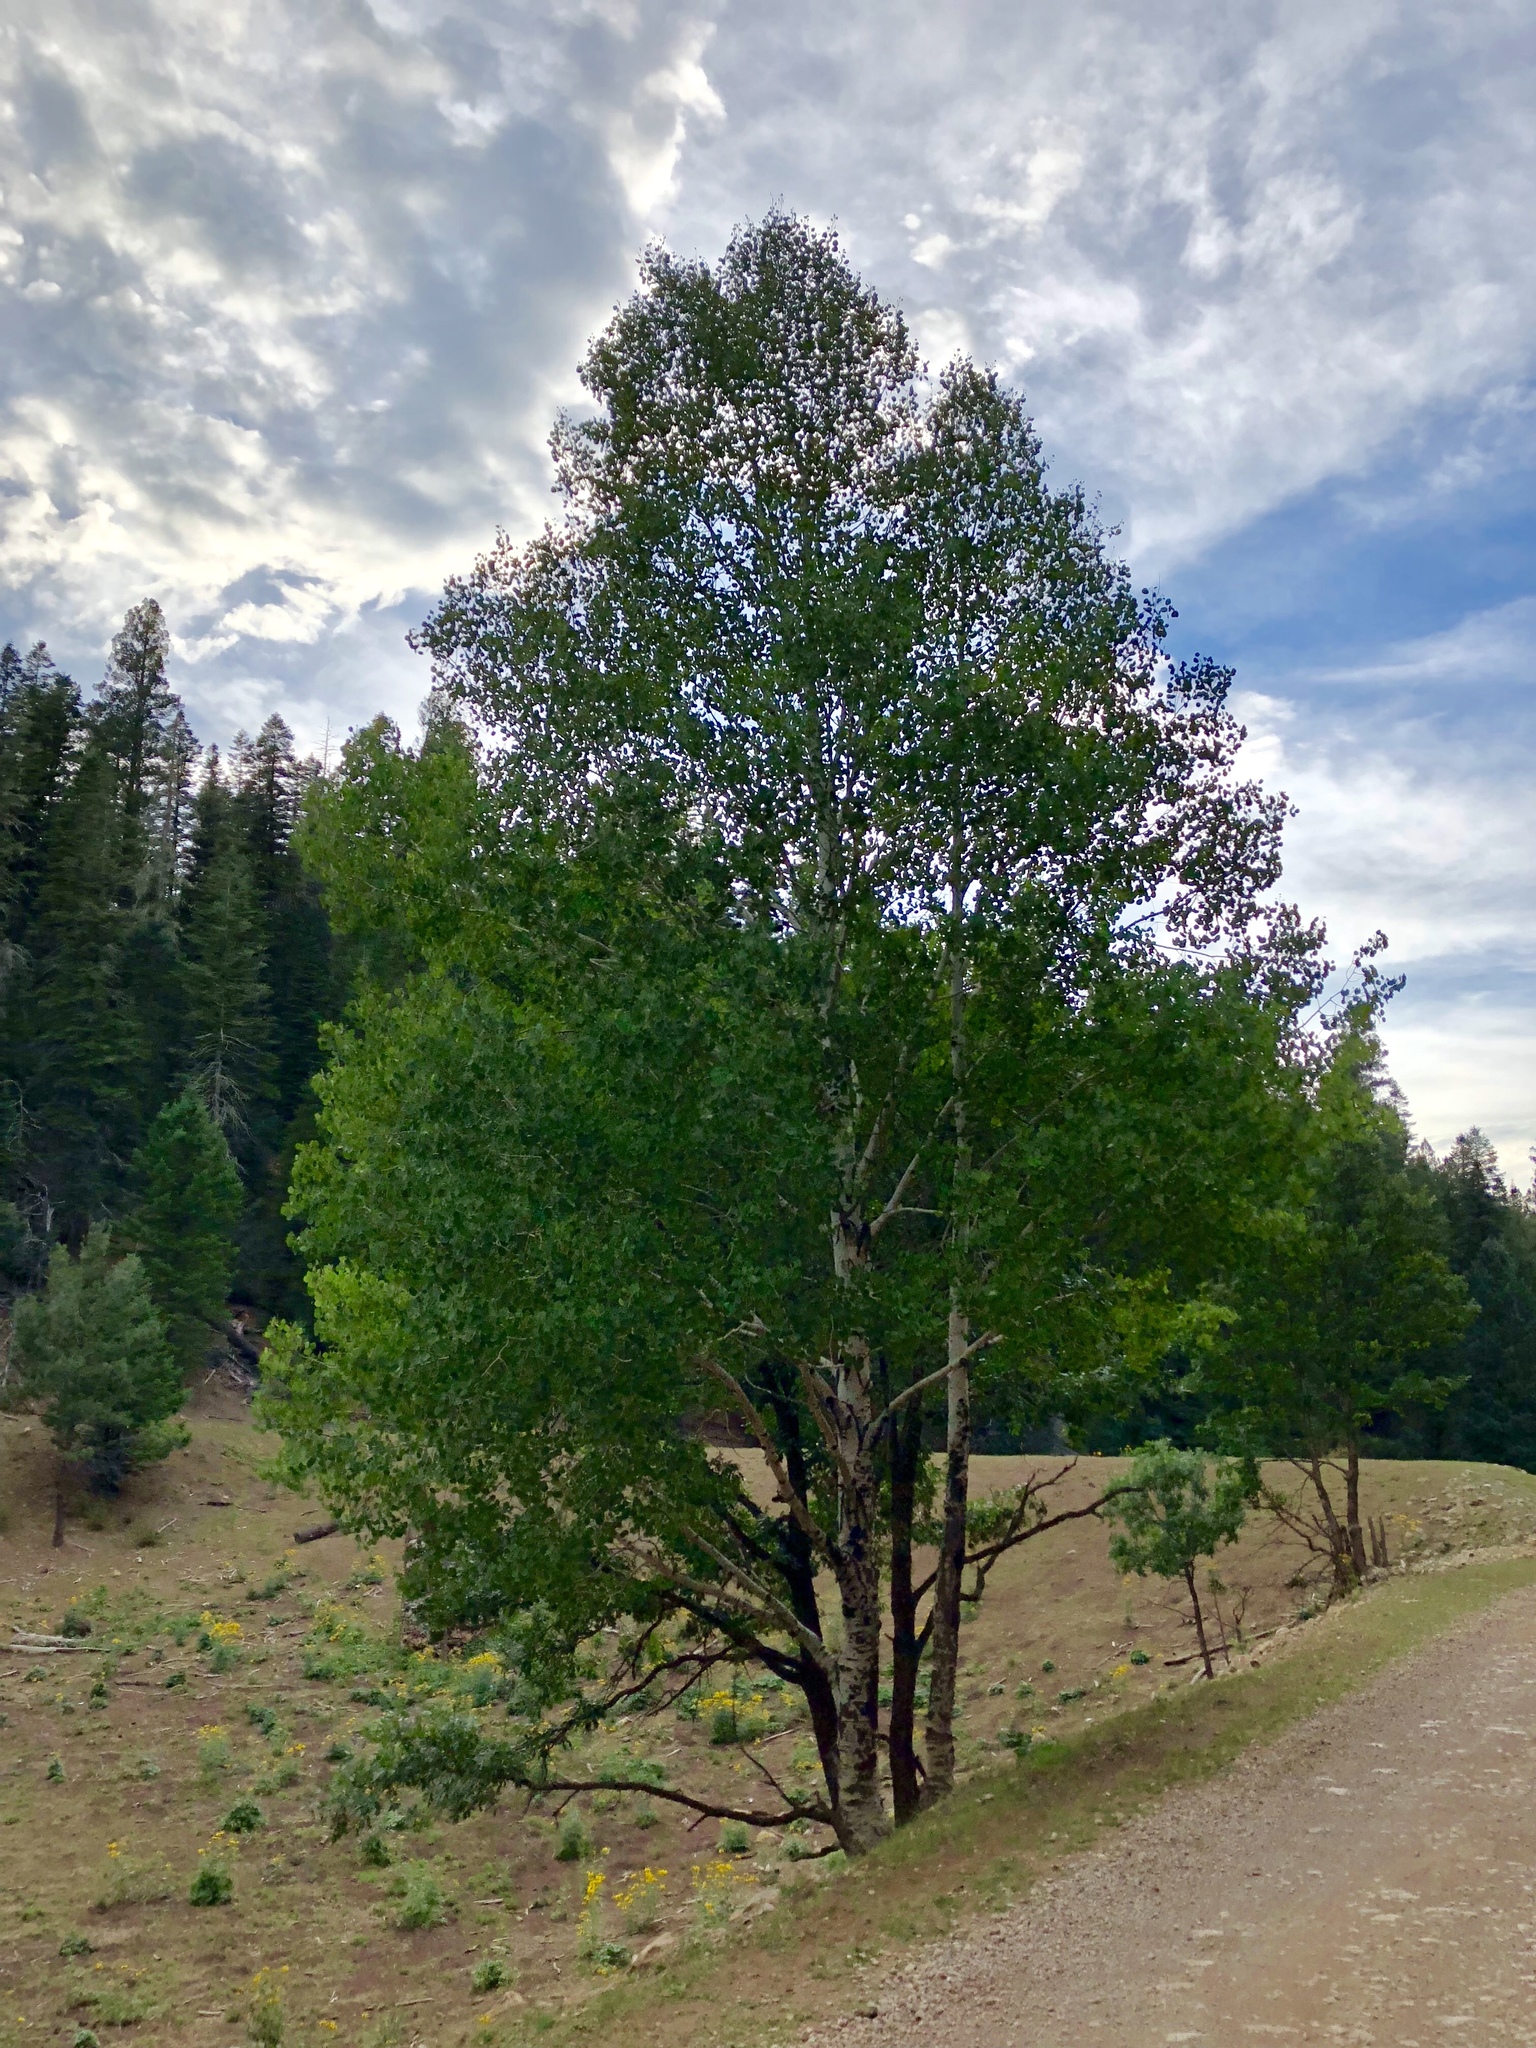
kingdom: Plantae
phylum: Tracheophyta
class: Magnoliopsida
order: Malpighiales
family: Salicaceae
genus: Populus
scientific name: Populus tremuloides
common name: Quaking aspen
